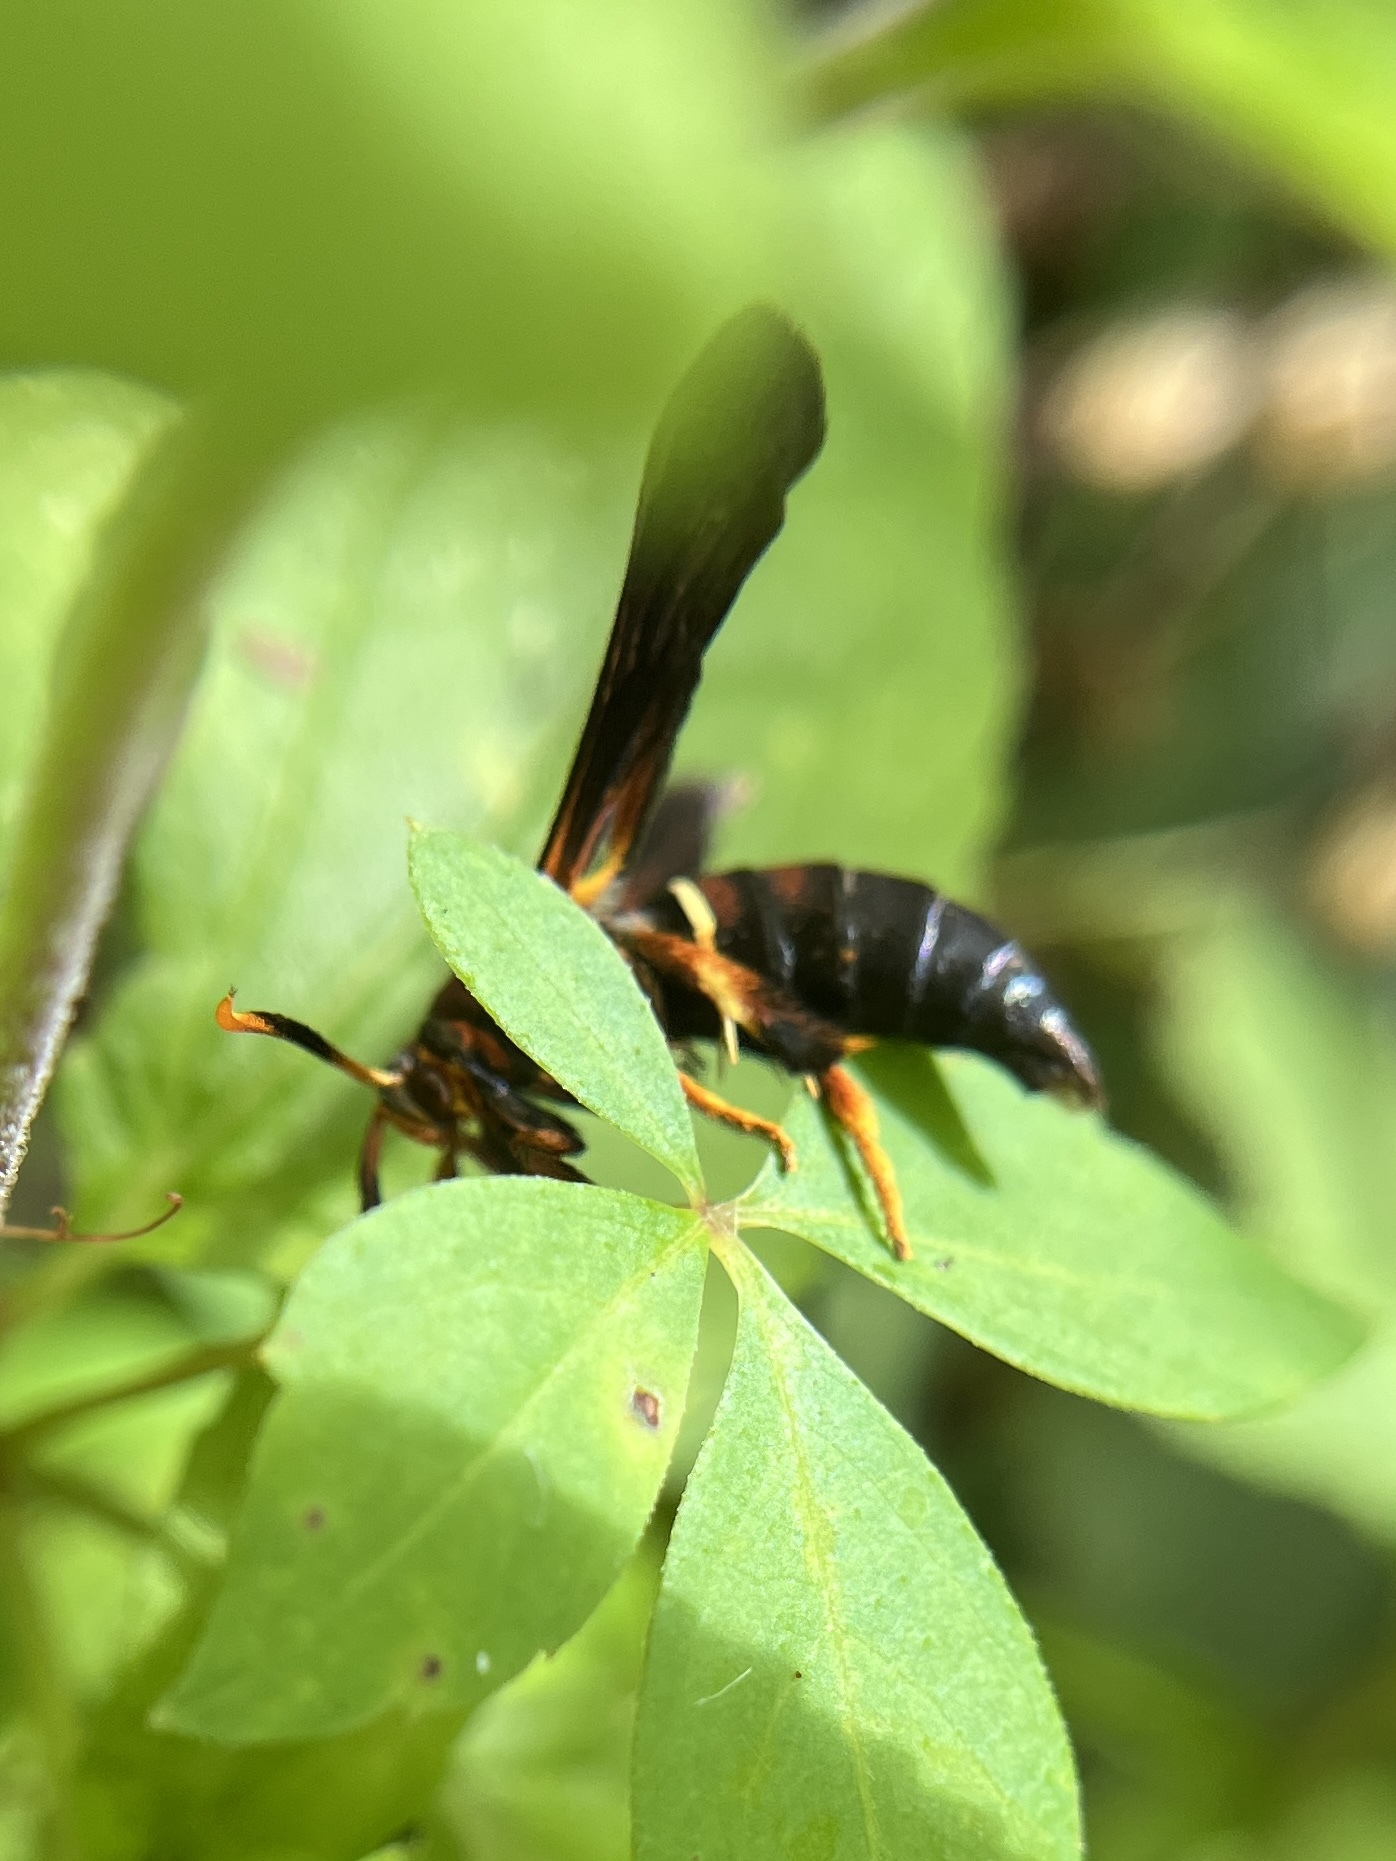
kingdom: Animalia
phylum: Arthropoda
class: Insecta
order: Lepidoptera
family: Sesiidae
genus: Vitacea
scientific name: Vitacea scepsiformis
